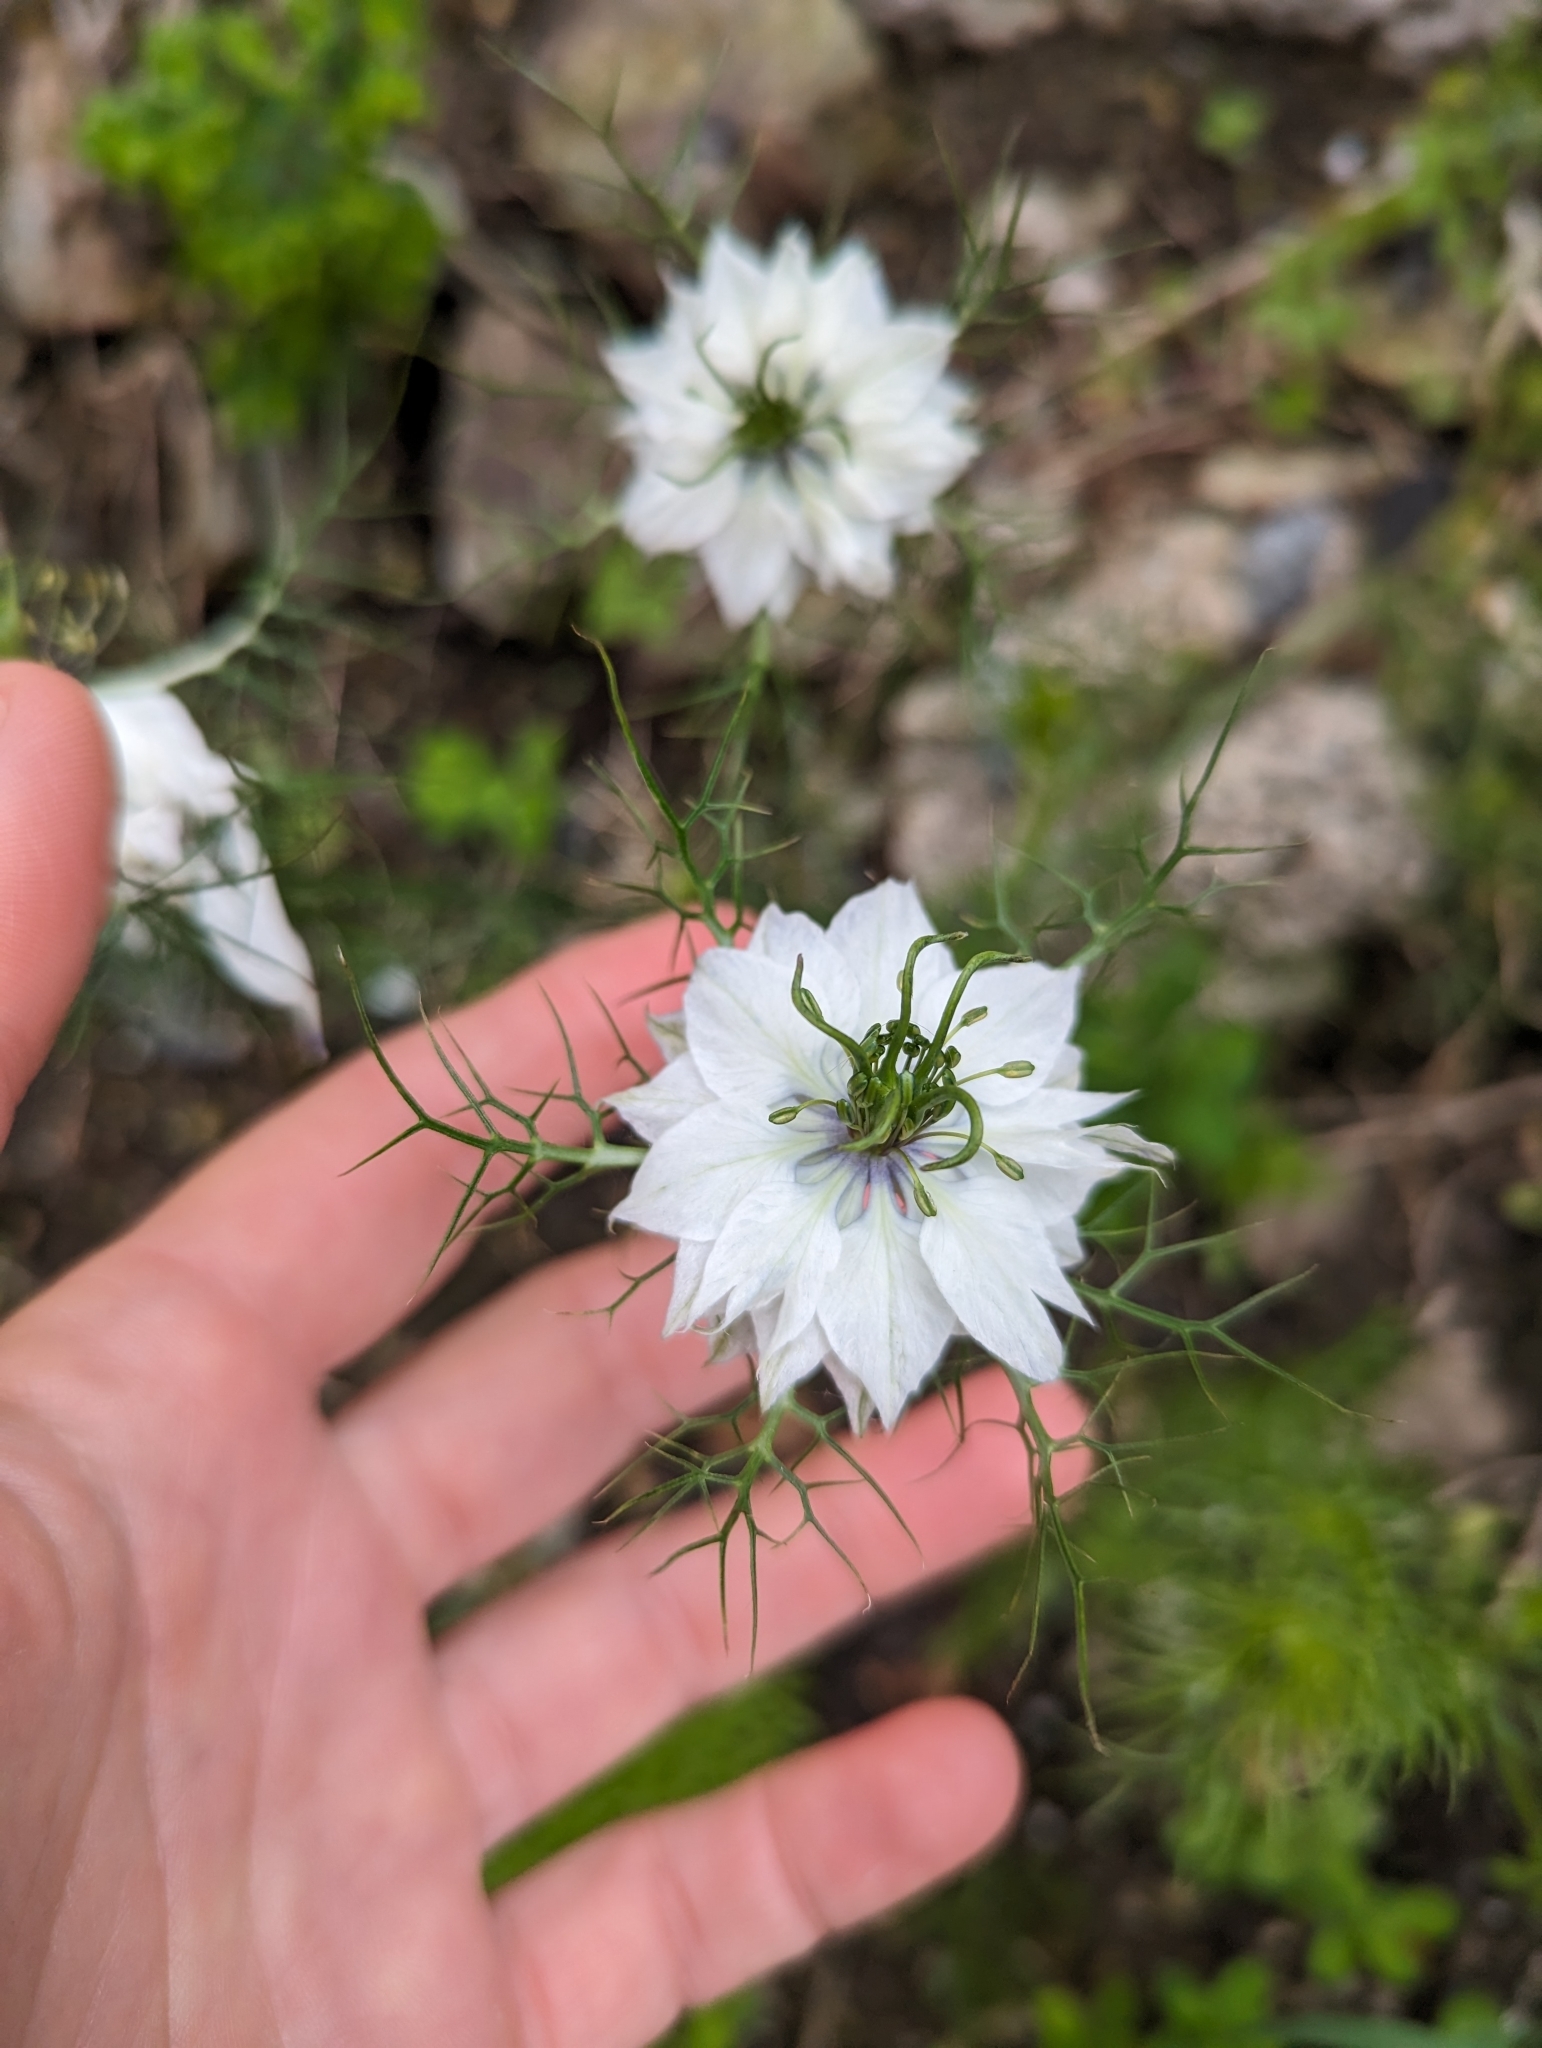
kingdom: Plantae
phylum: Tracheophyta
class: Magnoliopsida
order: Ranunculales
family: Ranunculaceae
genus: Nigella
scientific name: Nigella damascena
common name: Love-in-a-mist
